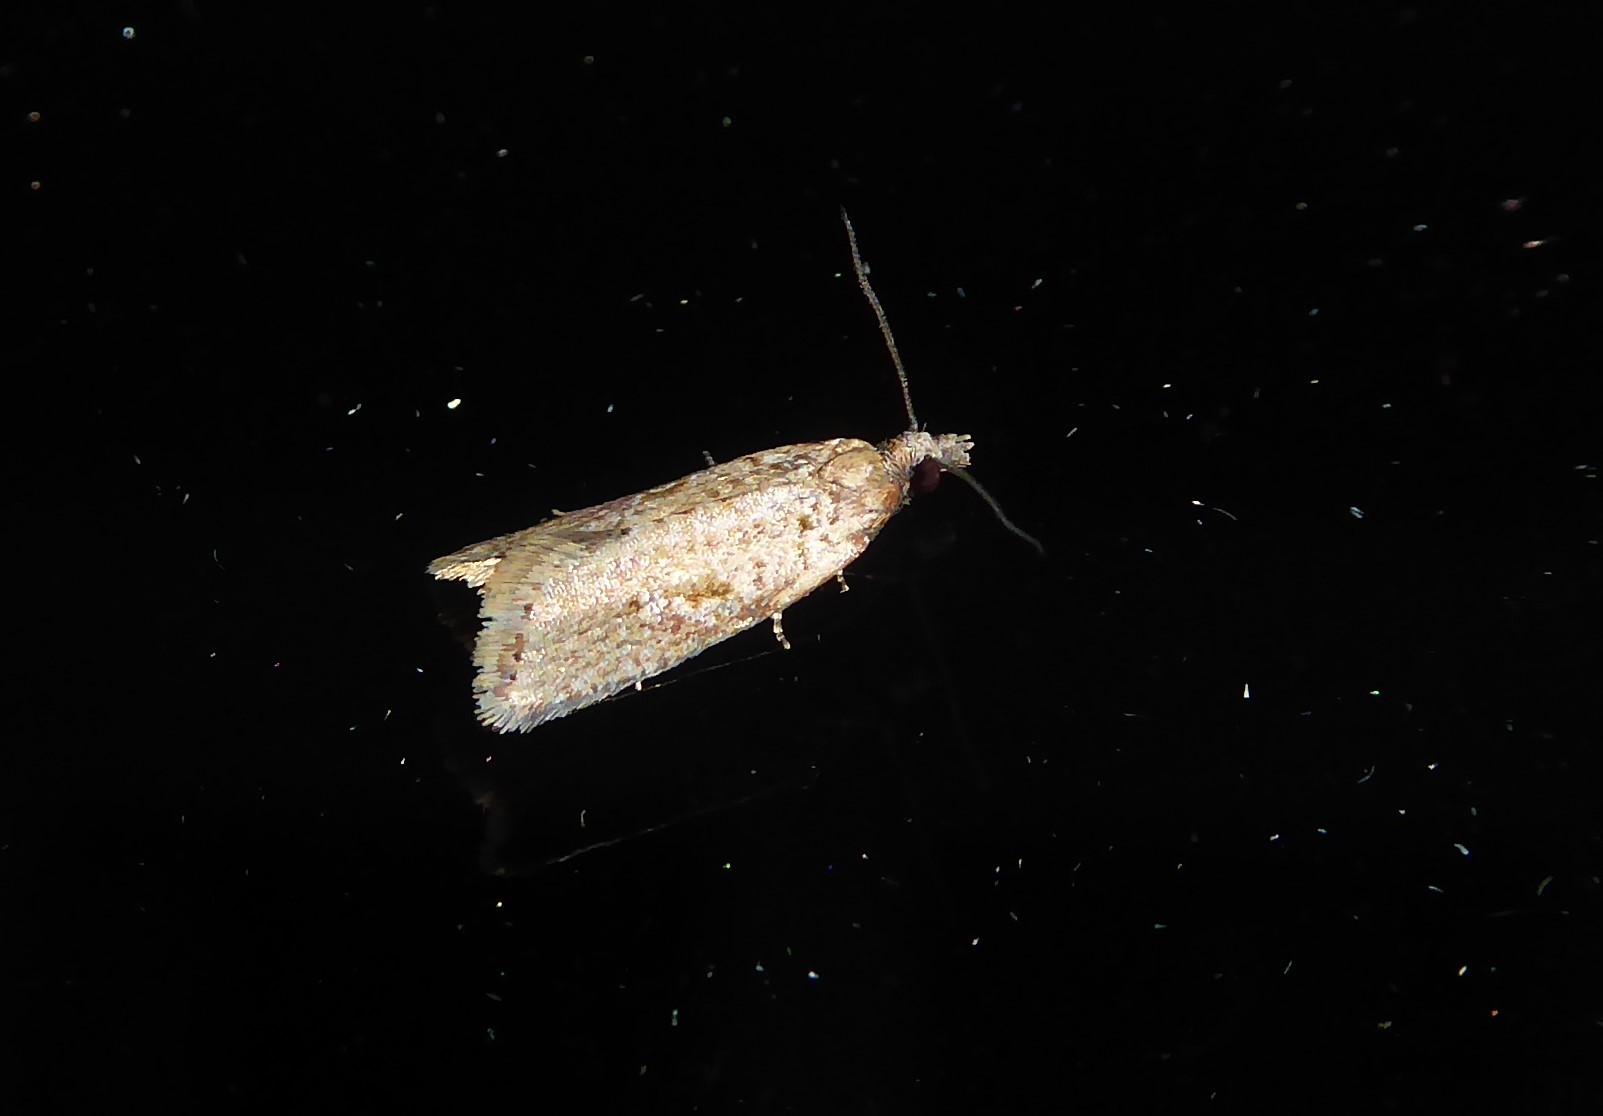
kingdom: Animalia
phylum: Arthropoda
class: Insecta
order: Lepidoptera
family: Tortricidae
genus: Capua
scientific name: Capua semiferana
